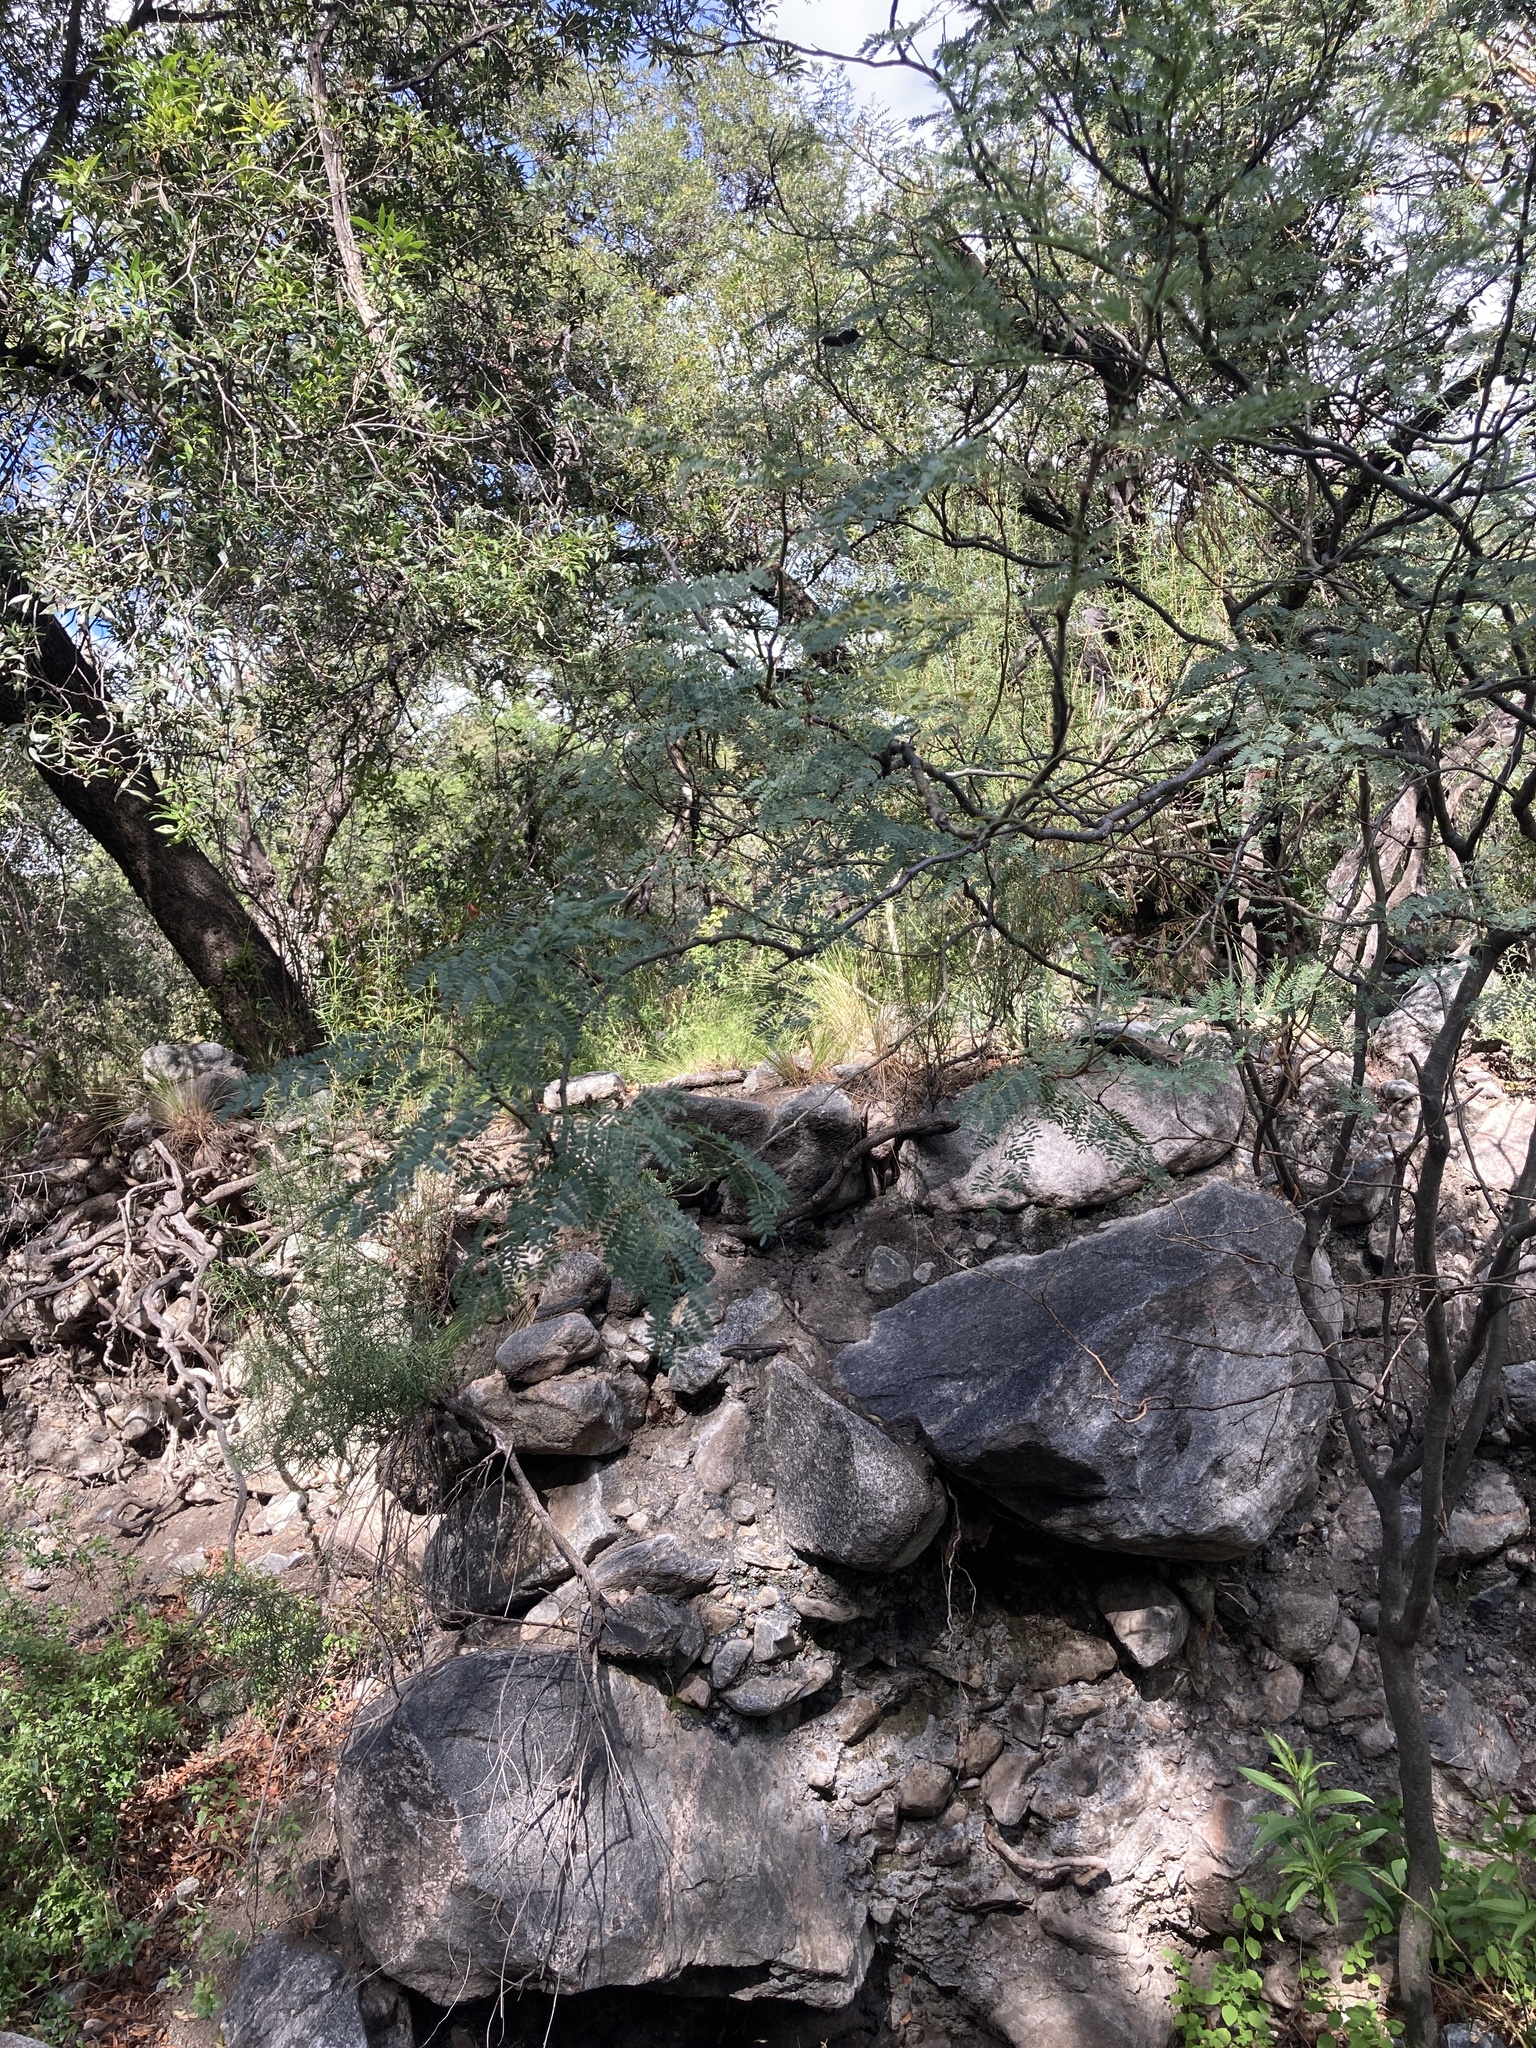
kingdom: Plantae
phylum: Tracheophyta
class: Magnoliopsida
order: Fabales
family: Fabaceae
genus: Erythrostemon
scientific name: Erythrostemon gilliesii
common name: Bird-of-paradise shrub
